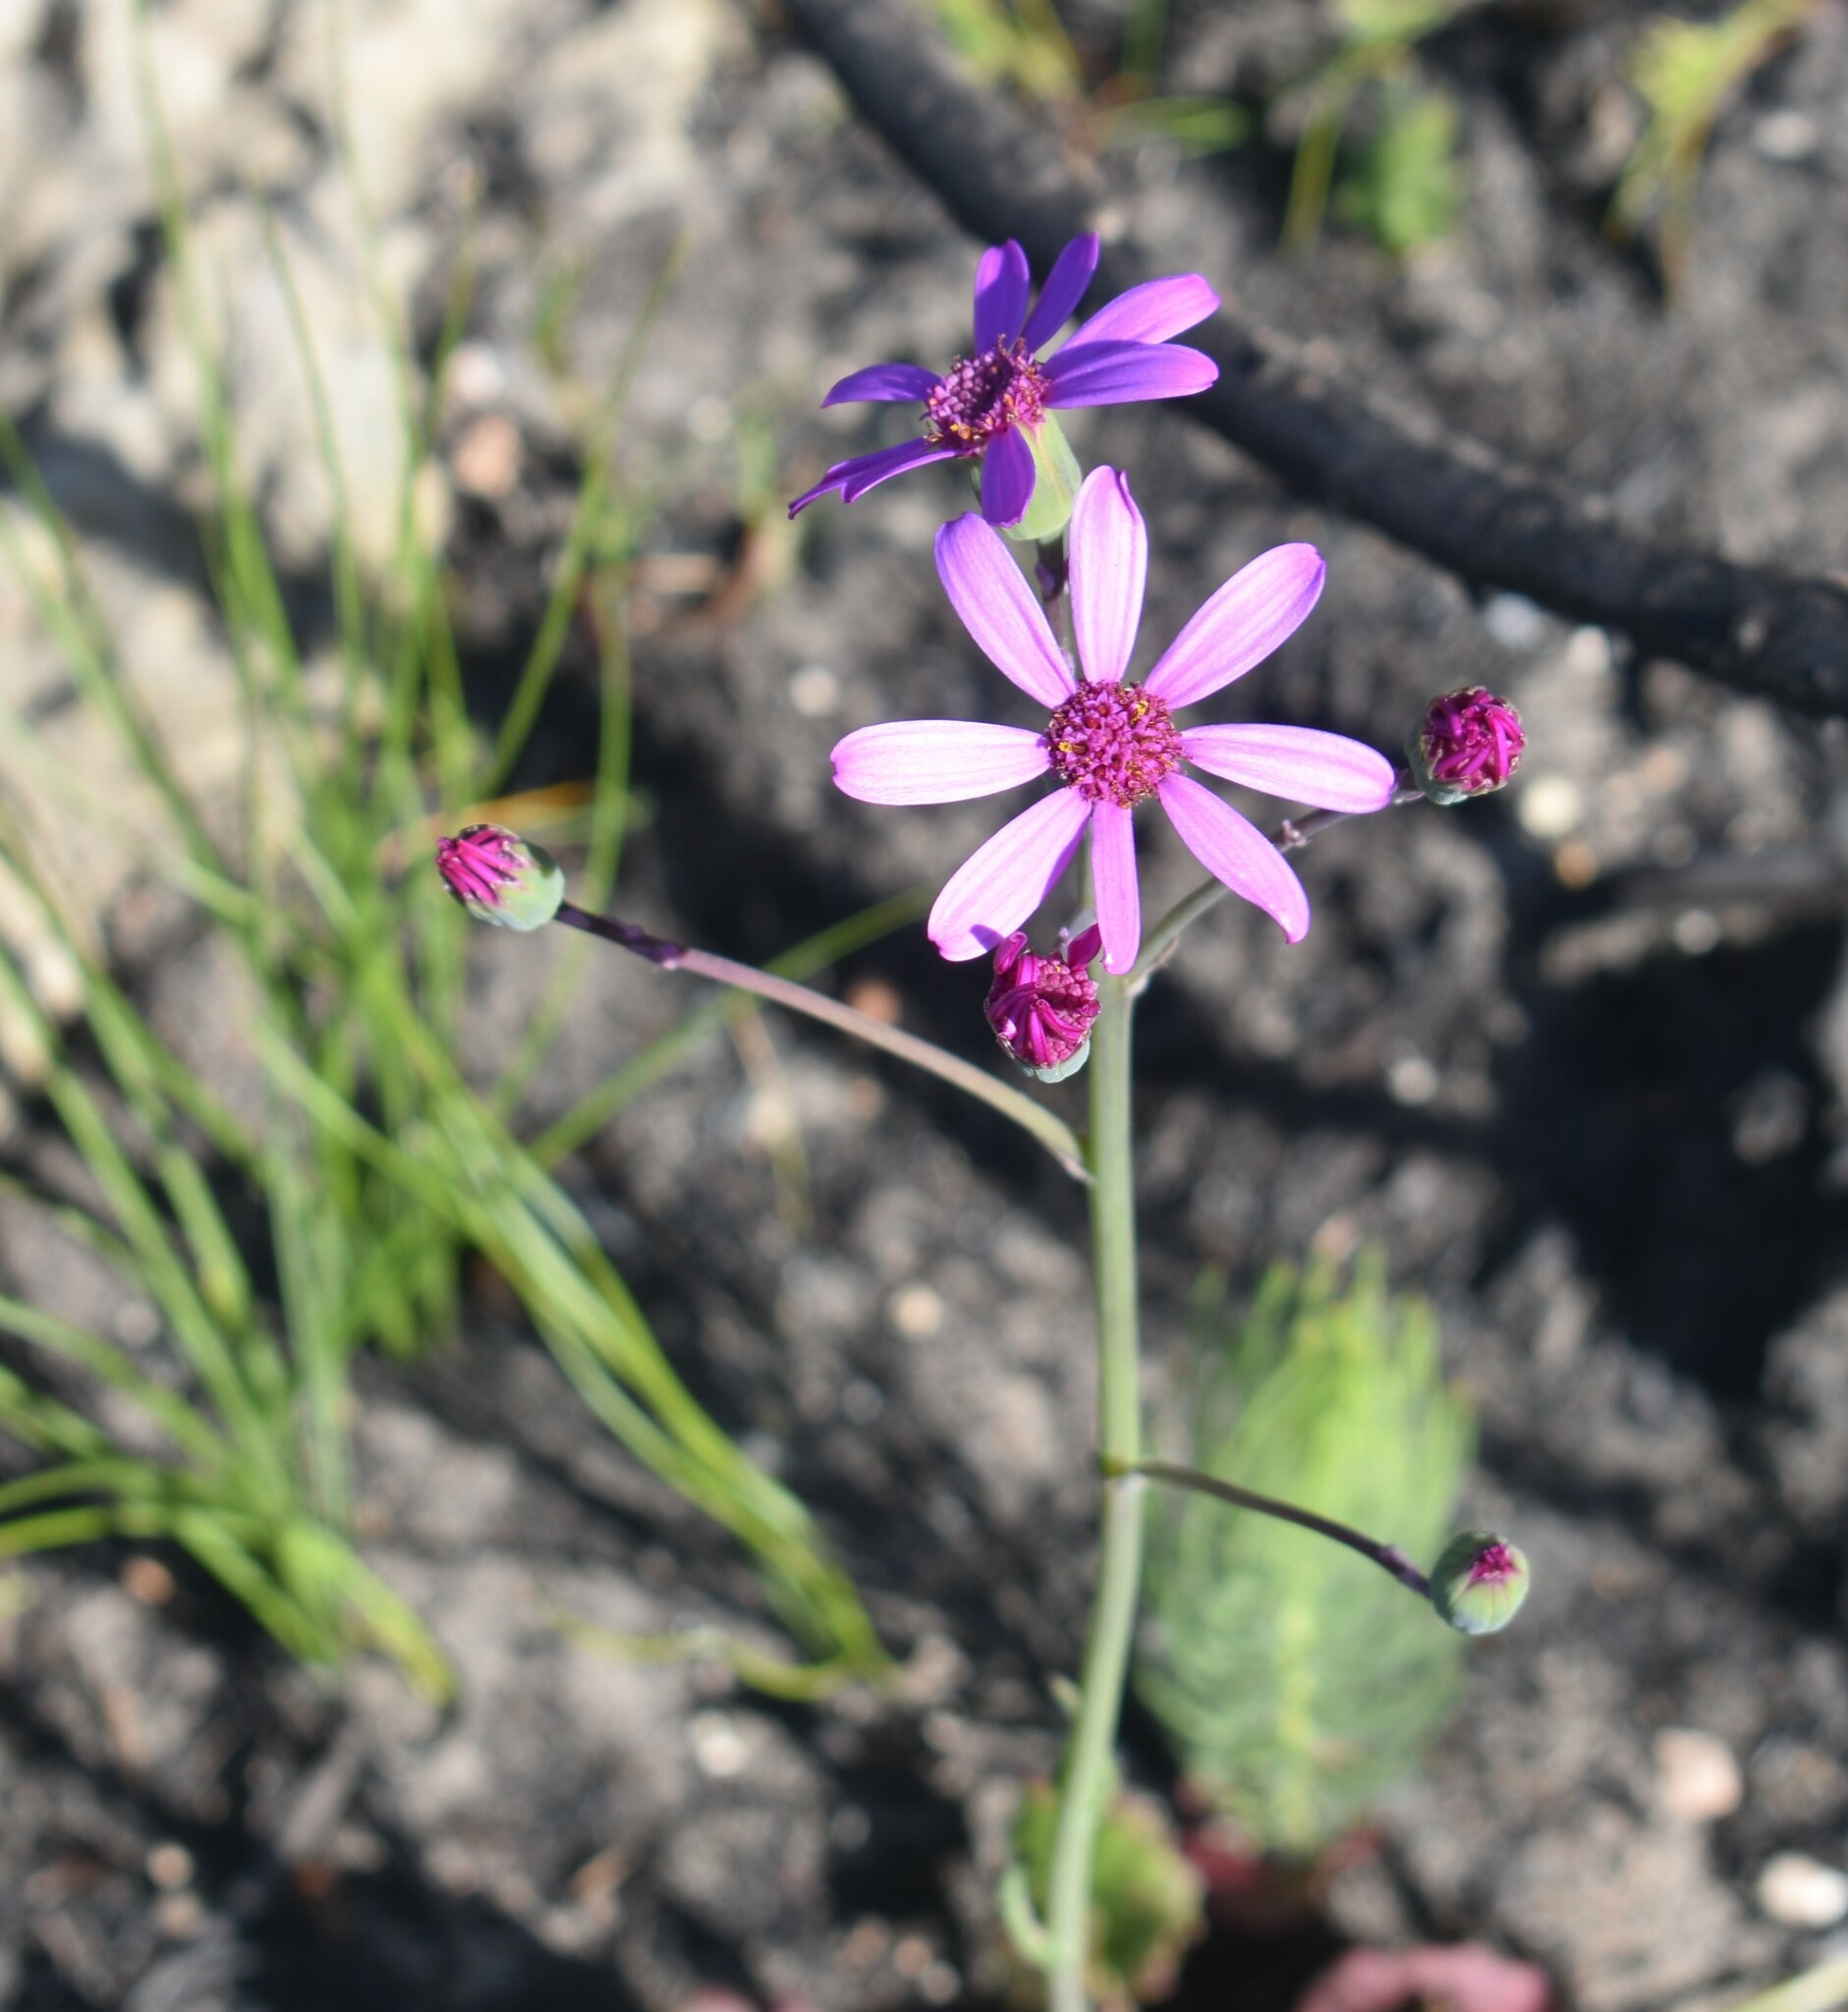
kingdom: Plantae
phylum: Tracheophyta
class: Magnoliopsida
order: Asterales
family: Asteraceae
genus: Senecio
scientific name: Senecio cymbalariifolius
